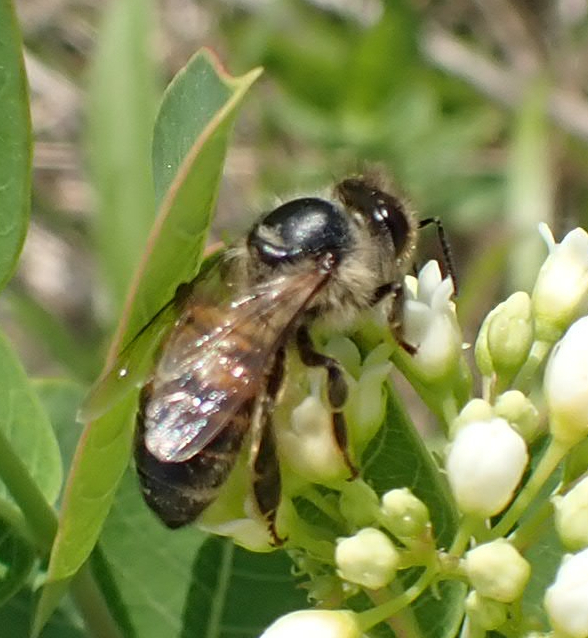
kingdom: Animalia
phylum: Arthropoda
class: Insecta
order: Hymenoptera
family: Apidae
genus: Apis
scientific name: Apis mellifera
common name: Honey bee
